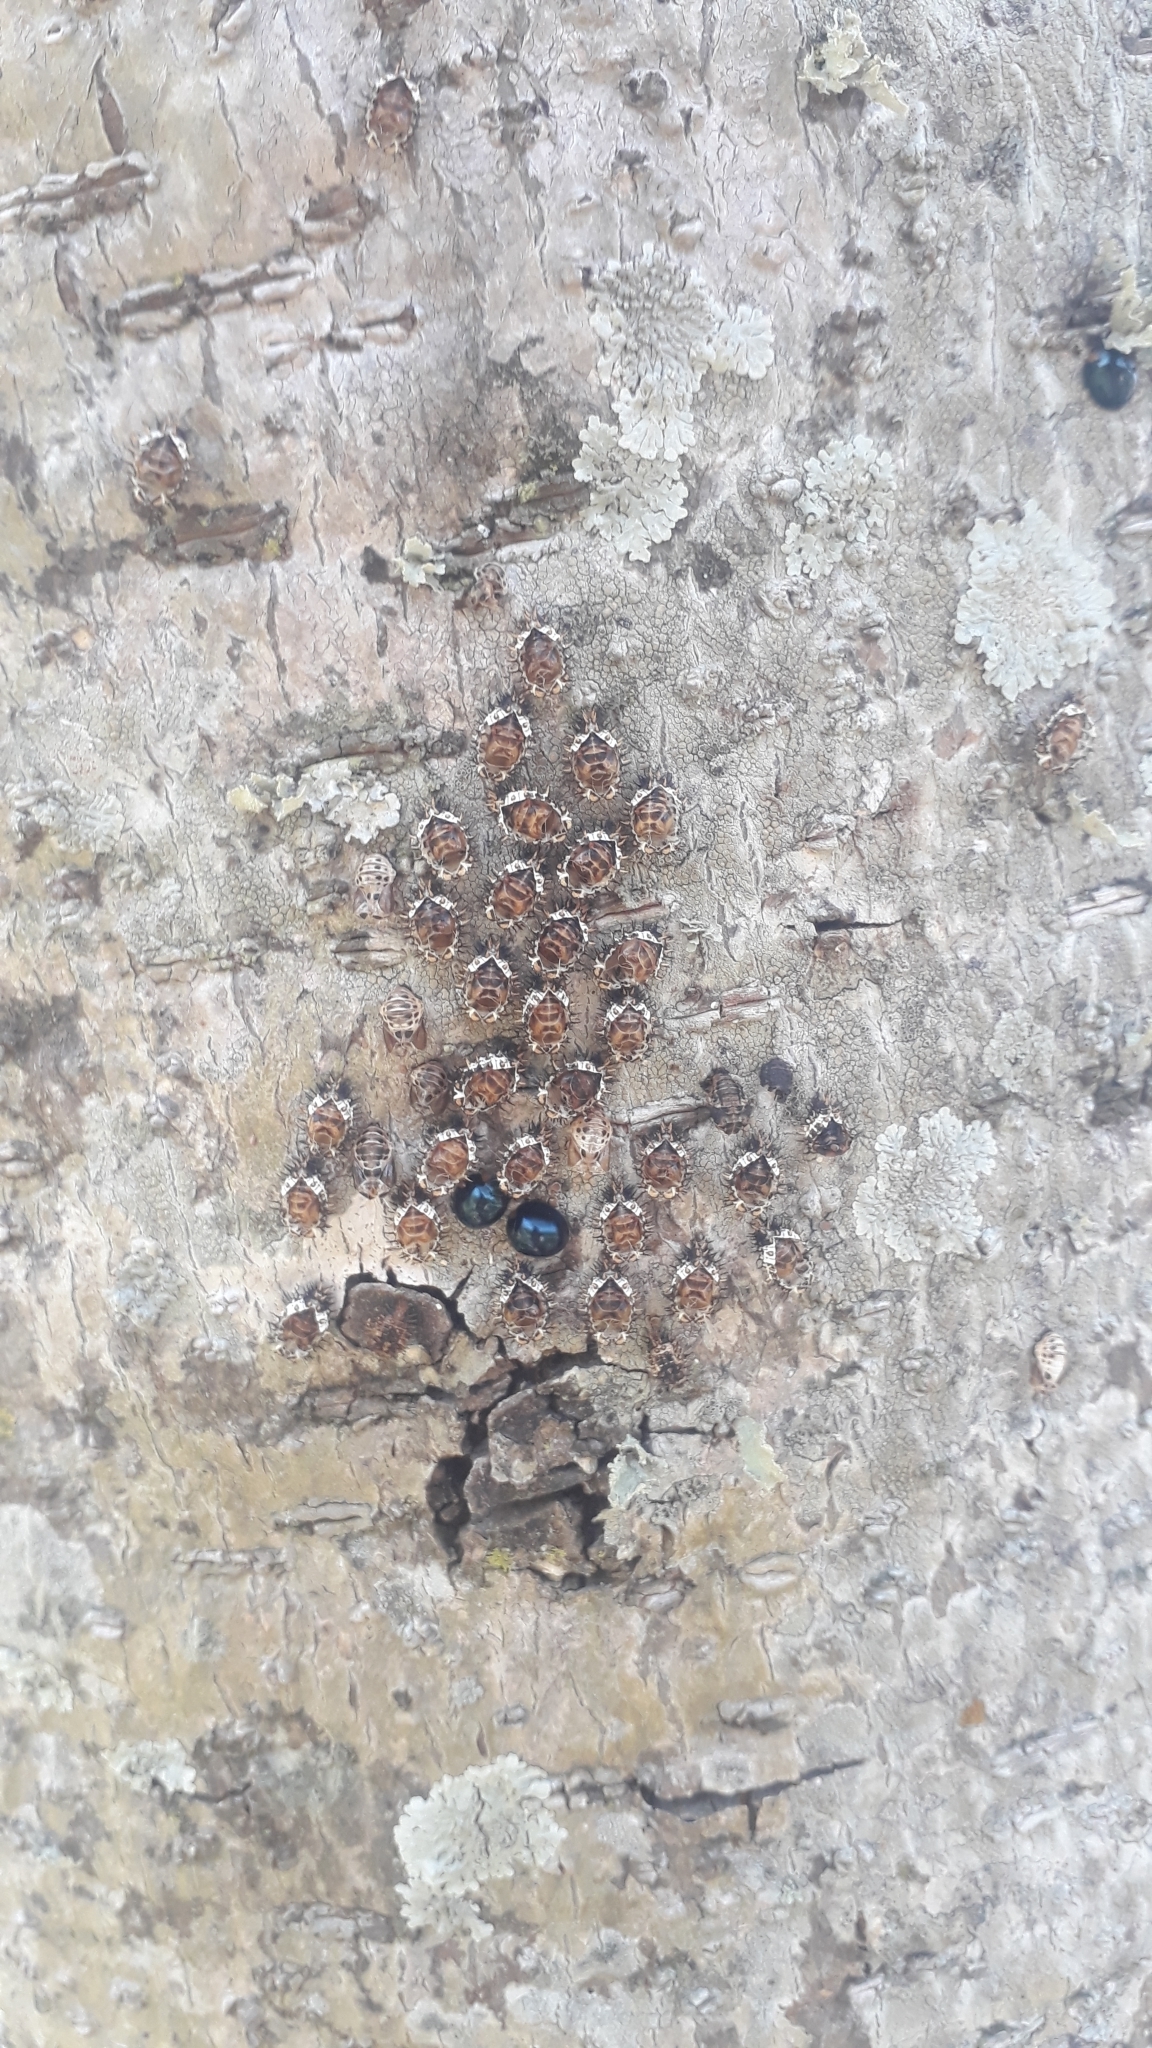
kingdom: Animalia
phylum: Arthropoda
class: Insecta
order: Coleoptera
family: Coccinellidae
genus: Curinus
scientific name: Curinus coeruleus
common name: Ladybird beetle
